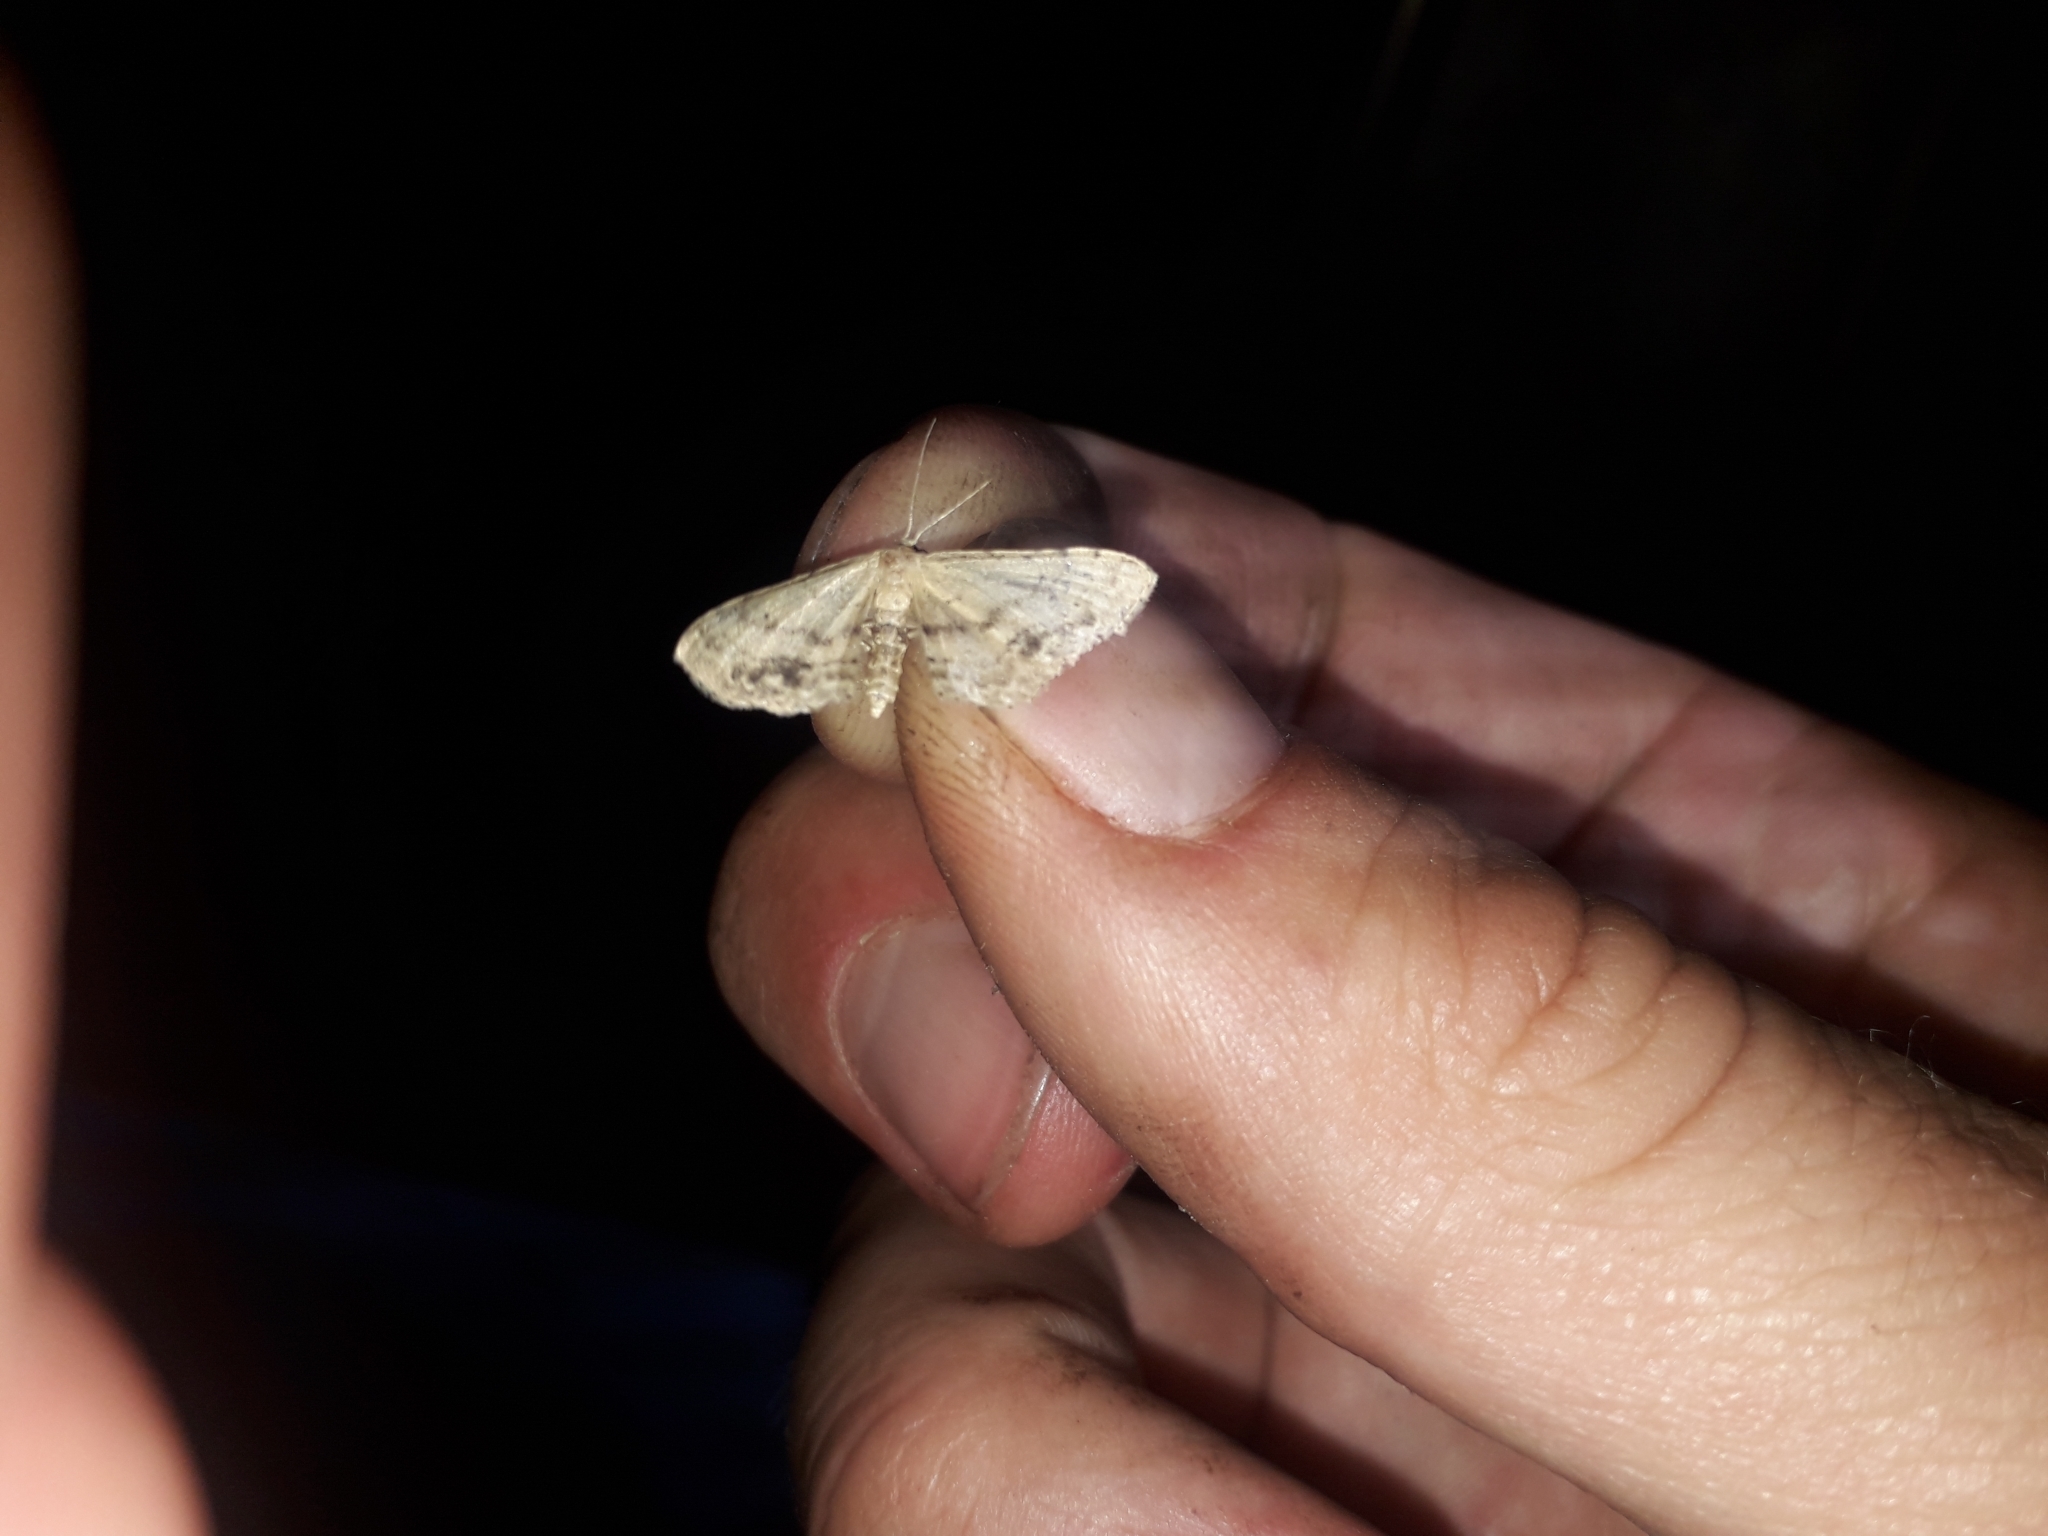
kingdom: Animalia
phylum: Arthropoda
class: Insecta
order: Lepidoptera
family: Geometridae
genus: Idaea
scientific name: Idaea dimidiata
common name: Single-dotted wave
